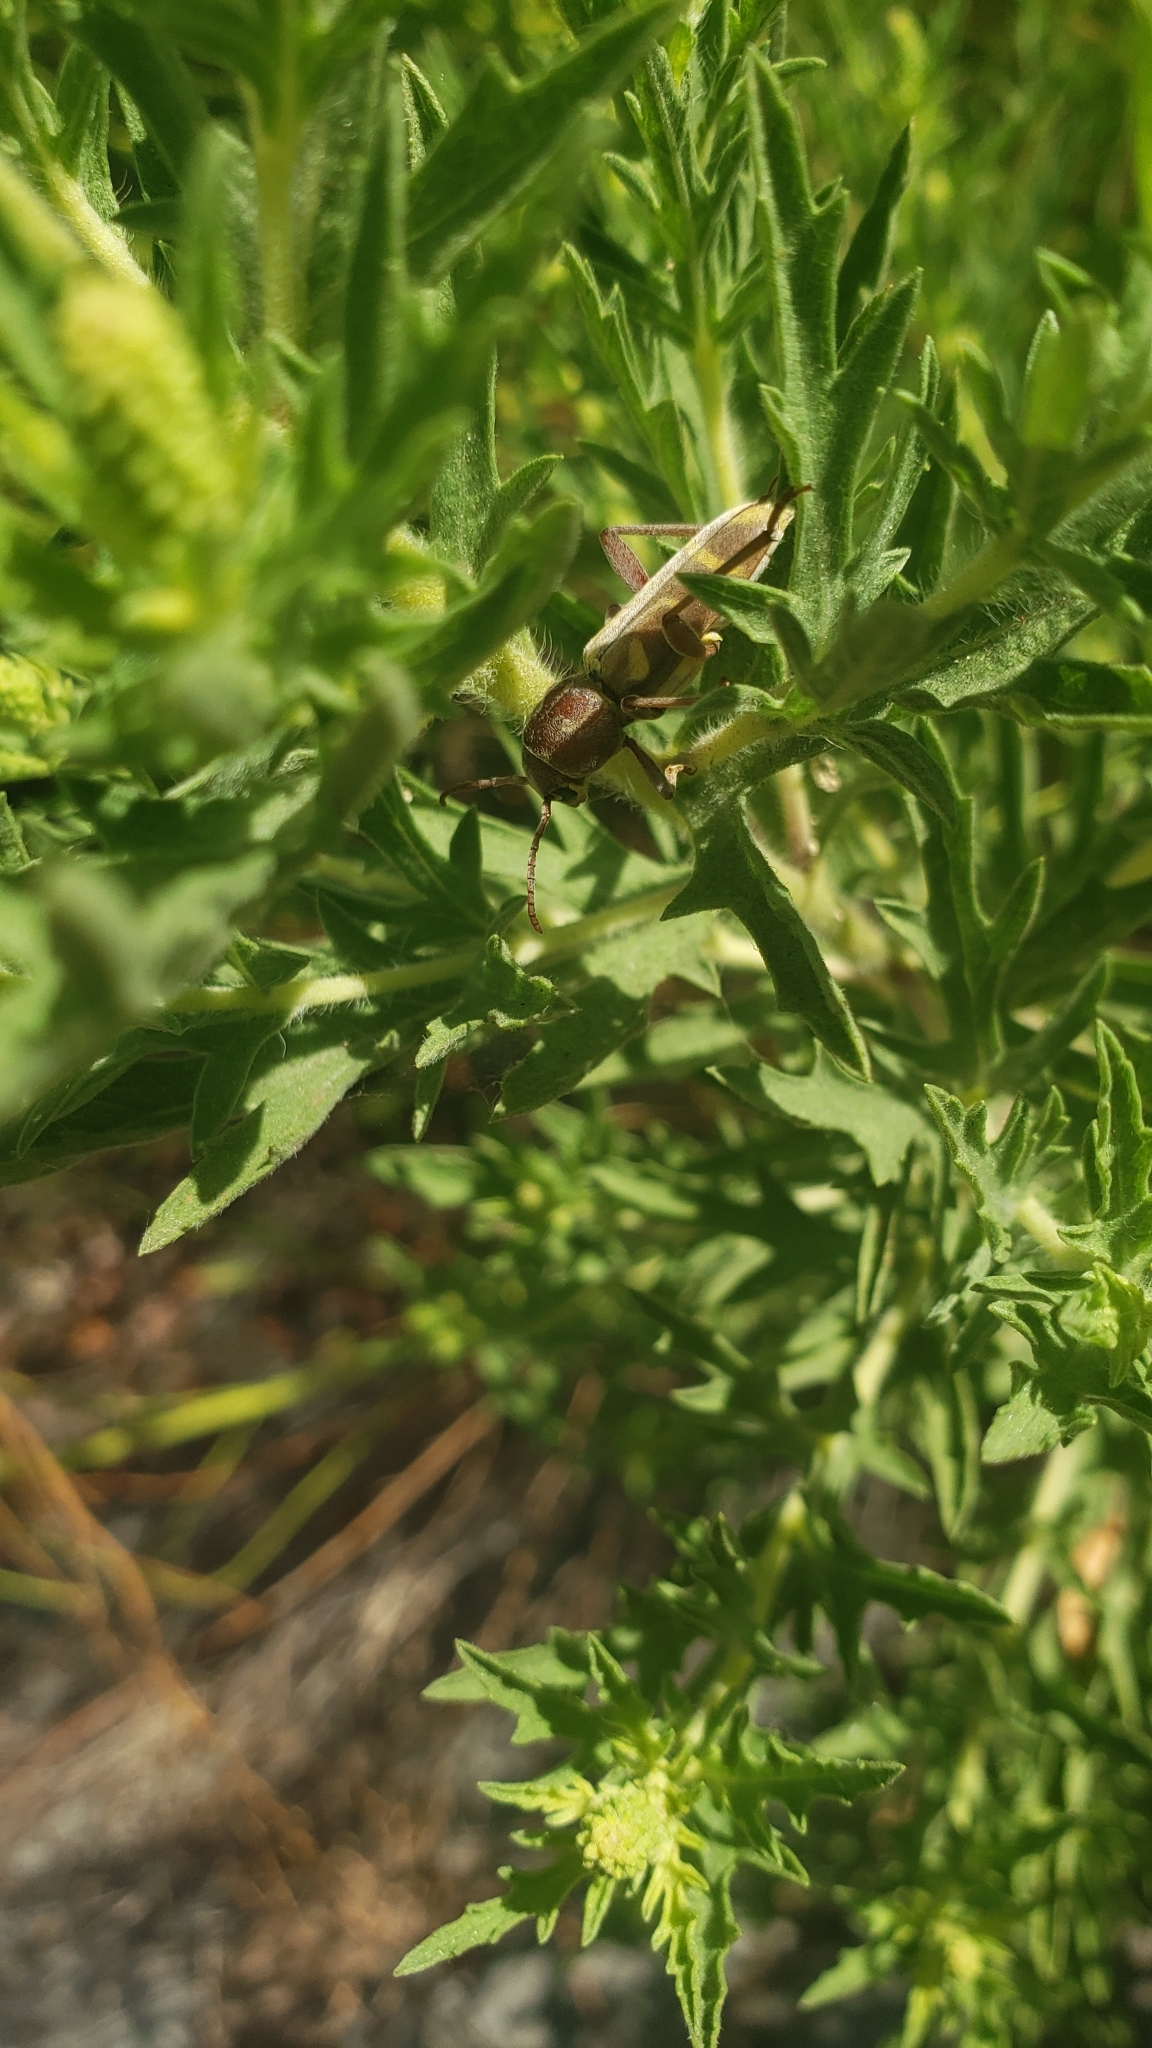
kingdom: Animalia
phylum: Arthropoda
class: Insecta
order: Coleoptera
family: Cerambycidae
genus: Xylotrechus
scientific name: Xylotrechus insignis
